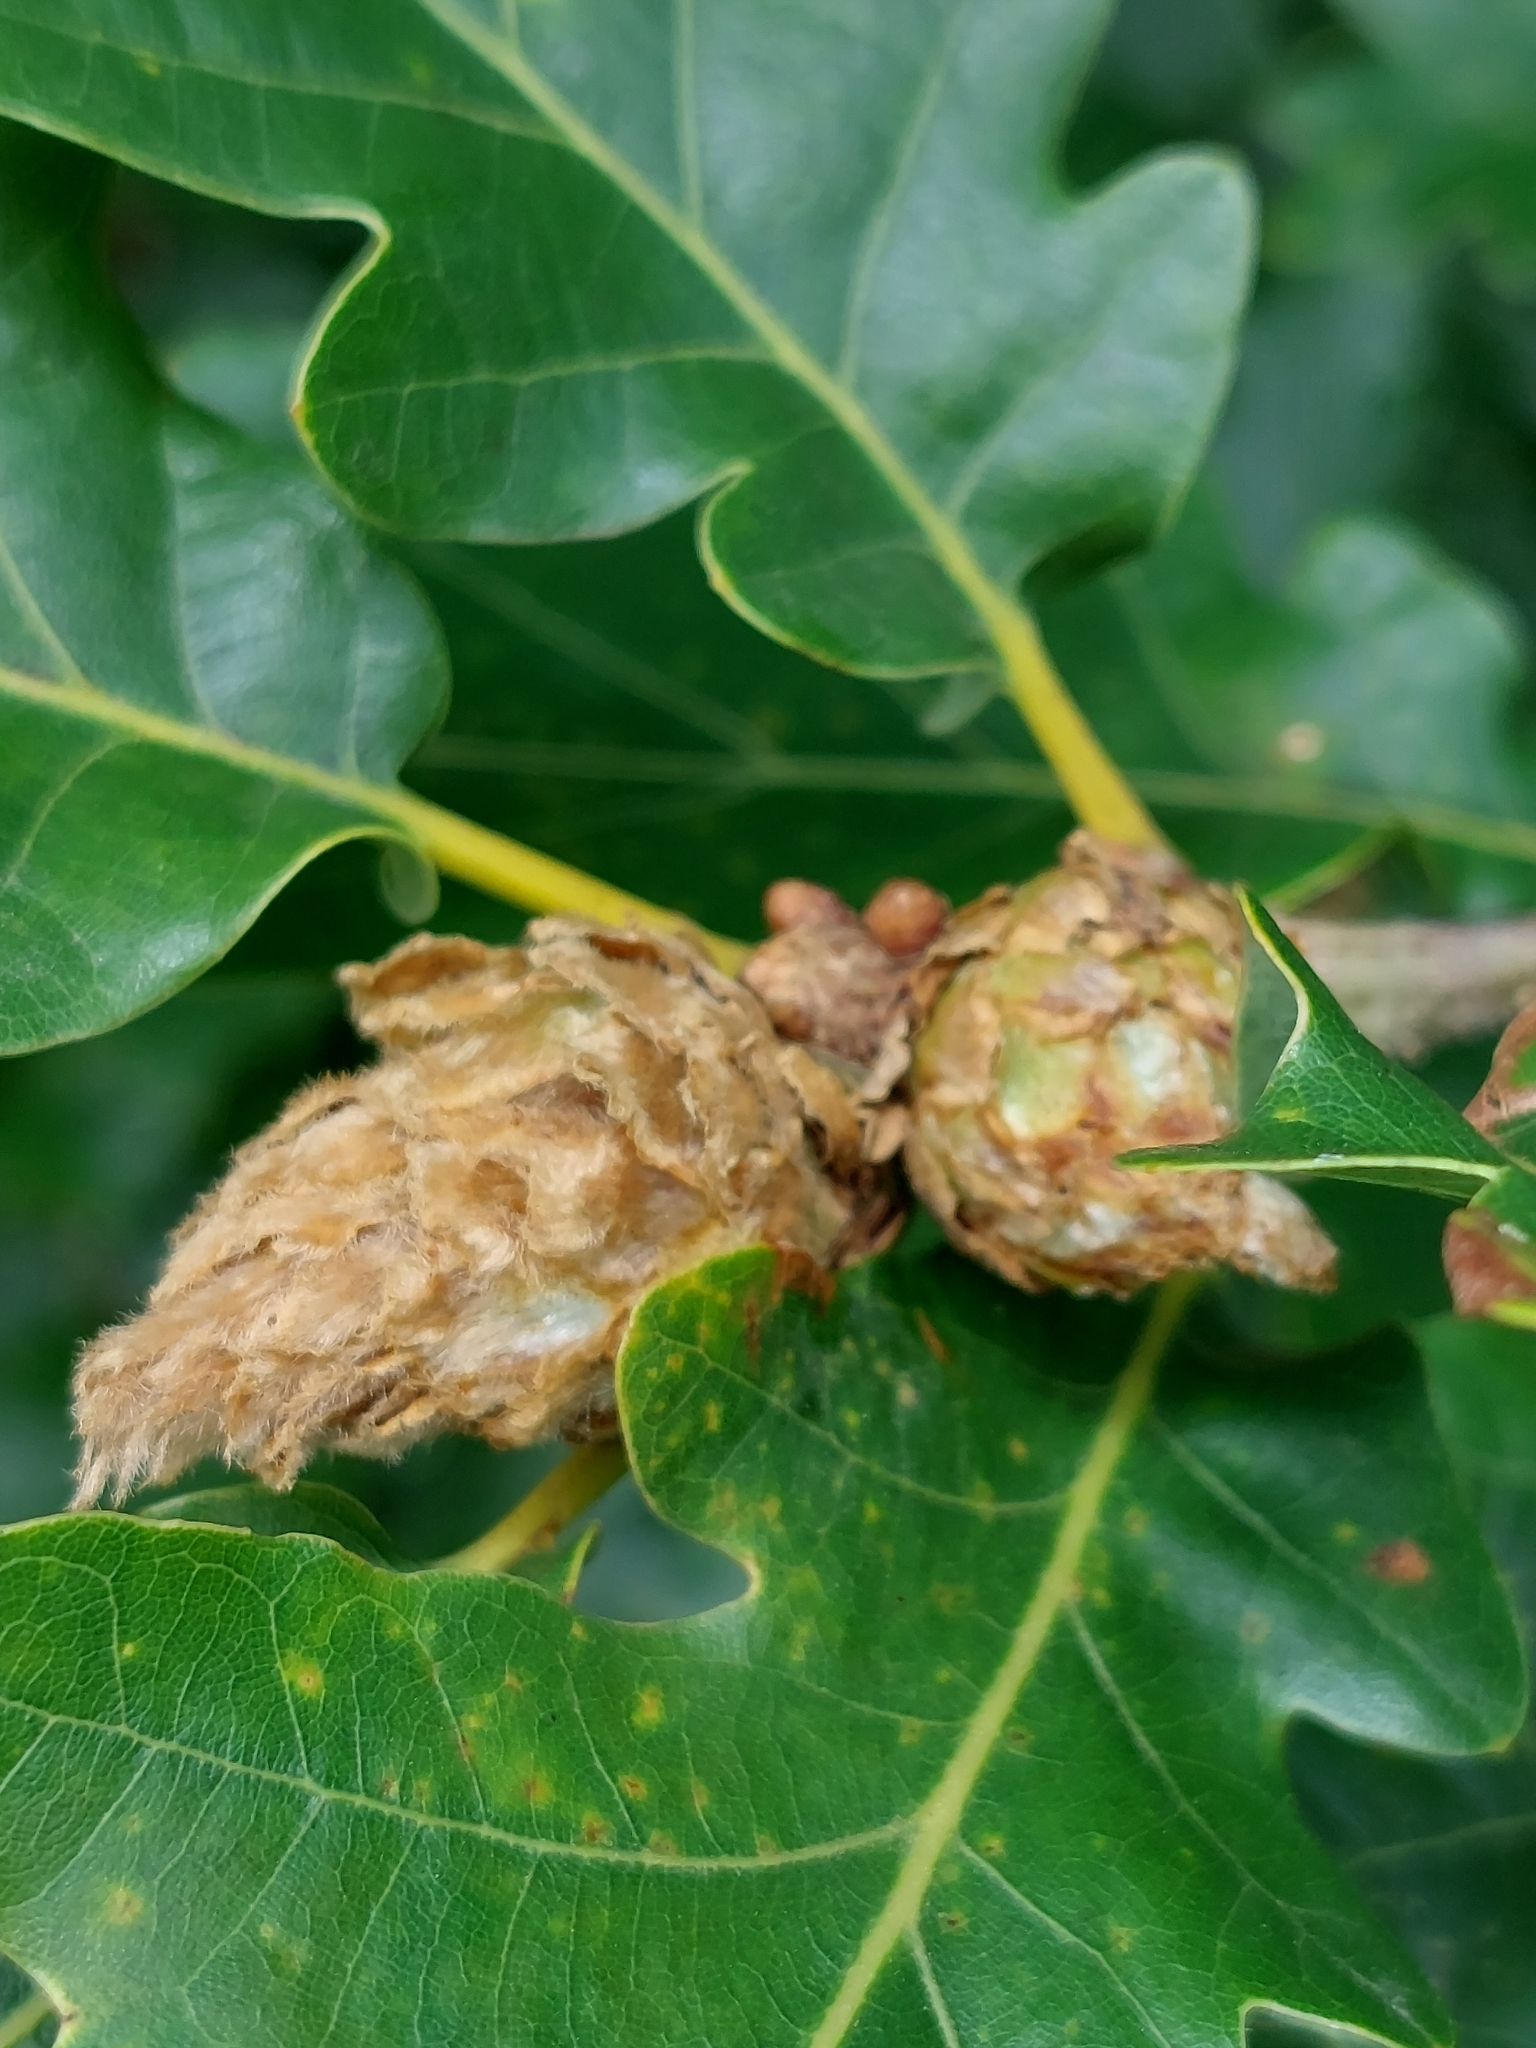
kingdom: Animalia
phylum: Arthropoda
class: Insecta
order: Hymenoptera
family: Cynipidae
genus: Andricus
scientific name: Andricus foecundatrix
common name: Artichoke gall
